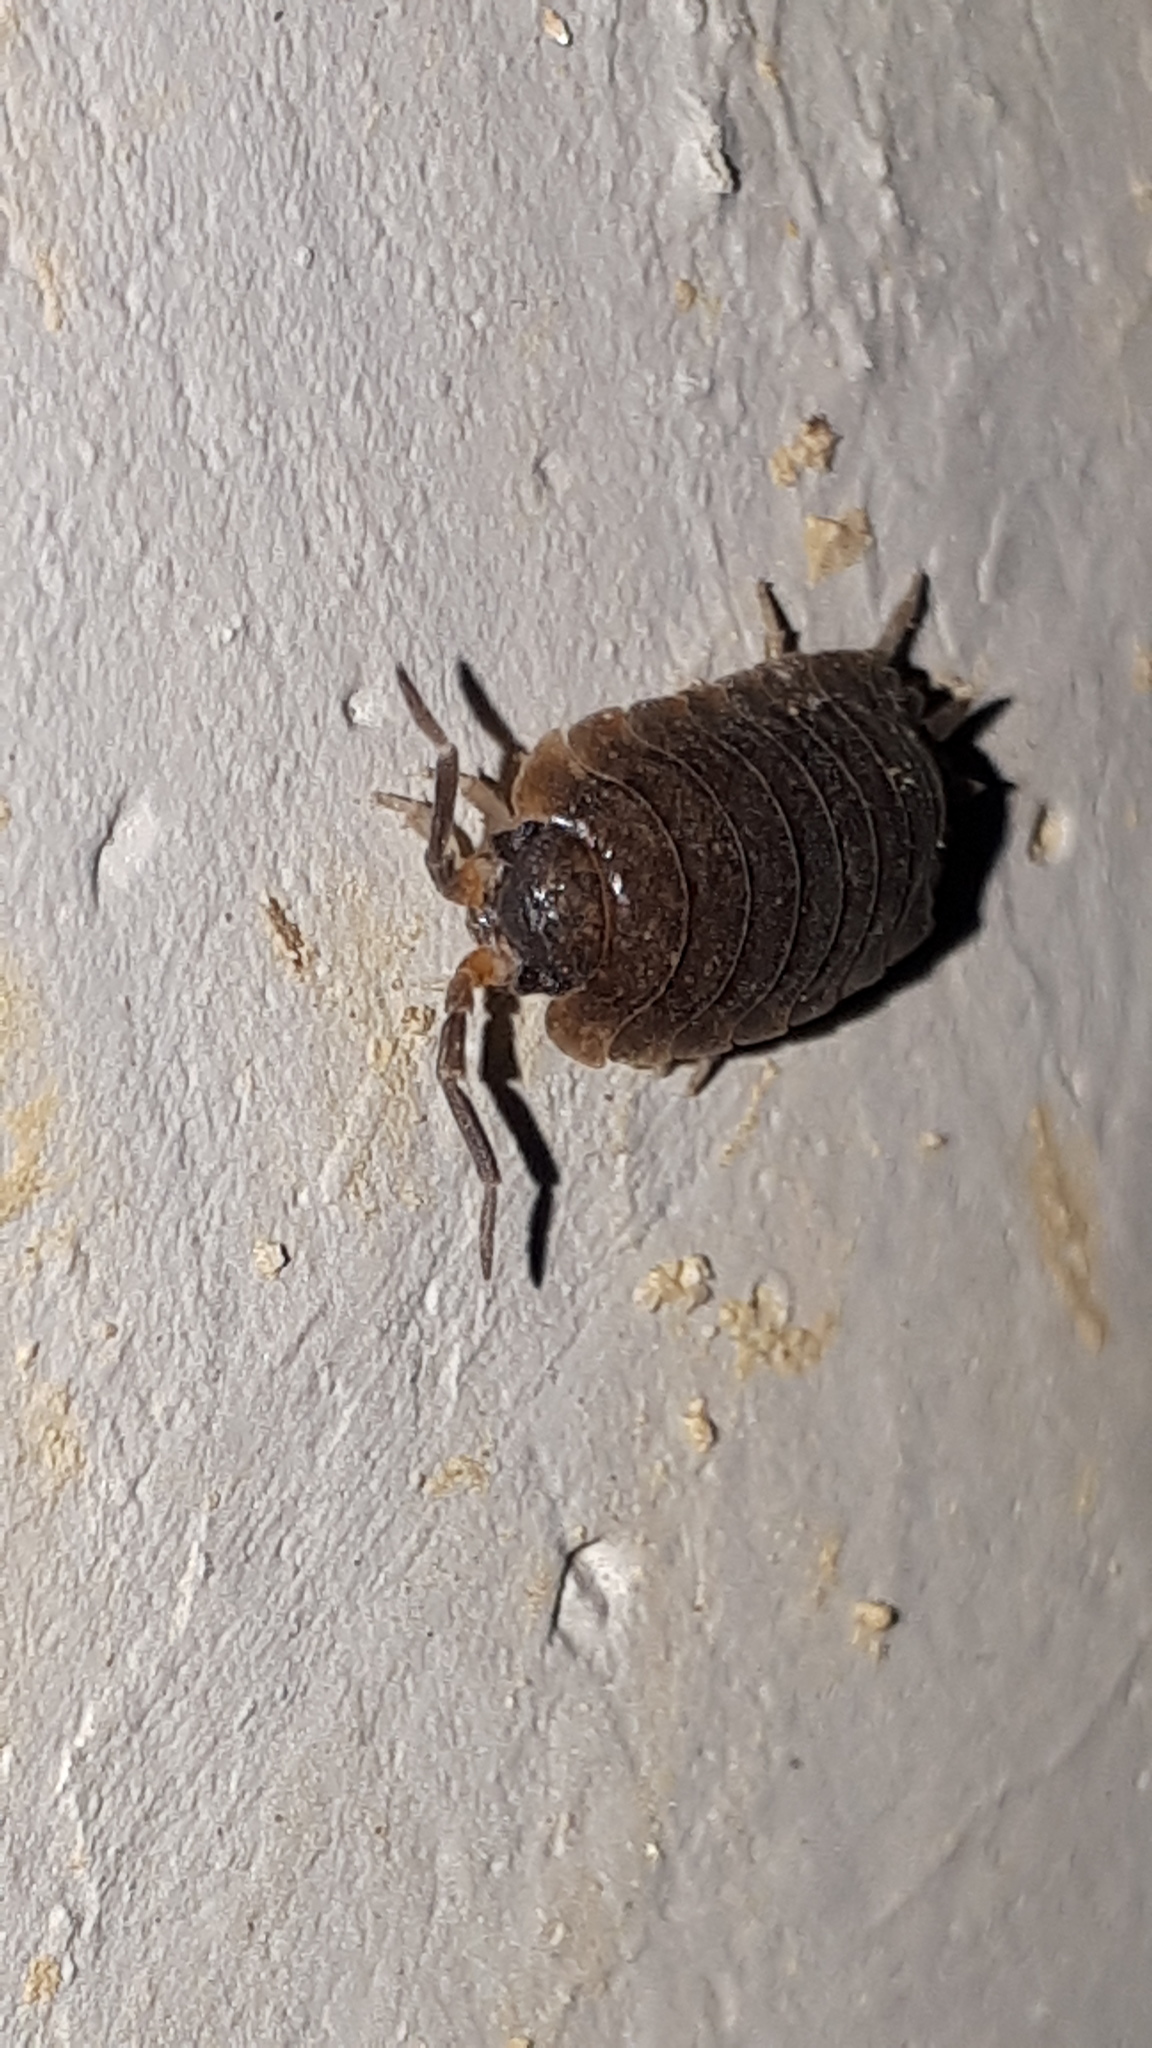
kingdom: Animalia
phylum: Arthropoda
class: Malacostraca
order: Isopoda
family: Porcellionidae
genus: Porcellio
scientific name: Porcellio scaber
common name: Common rough woodlouse
